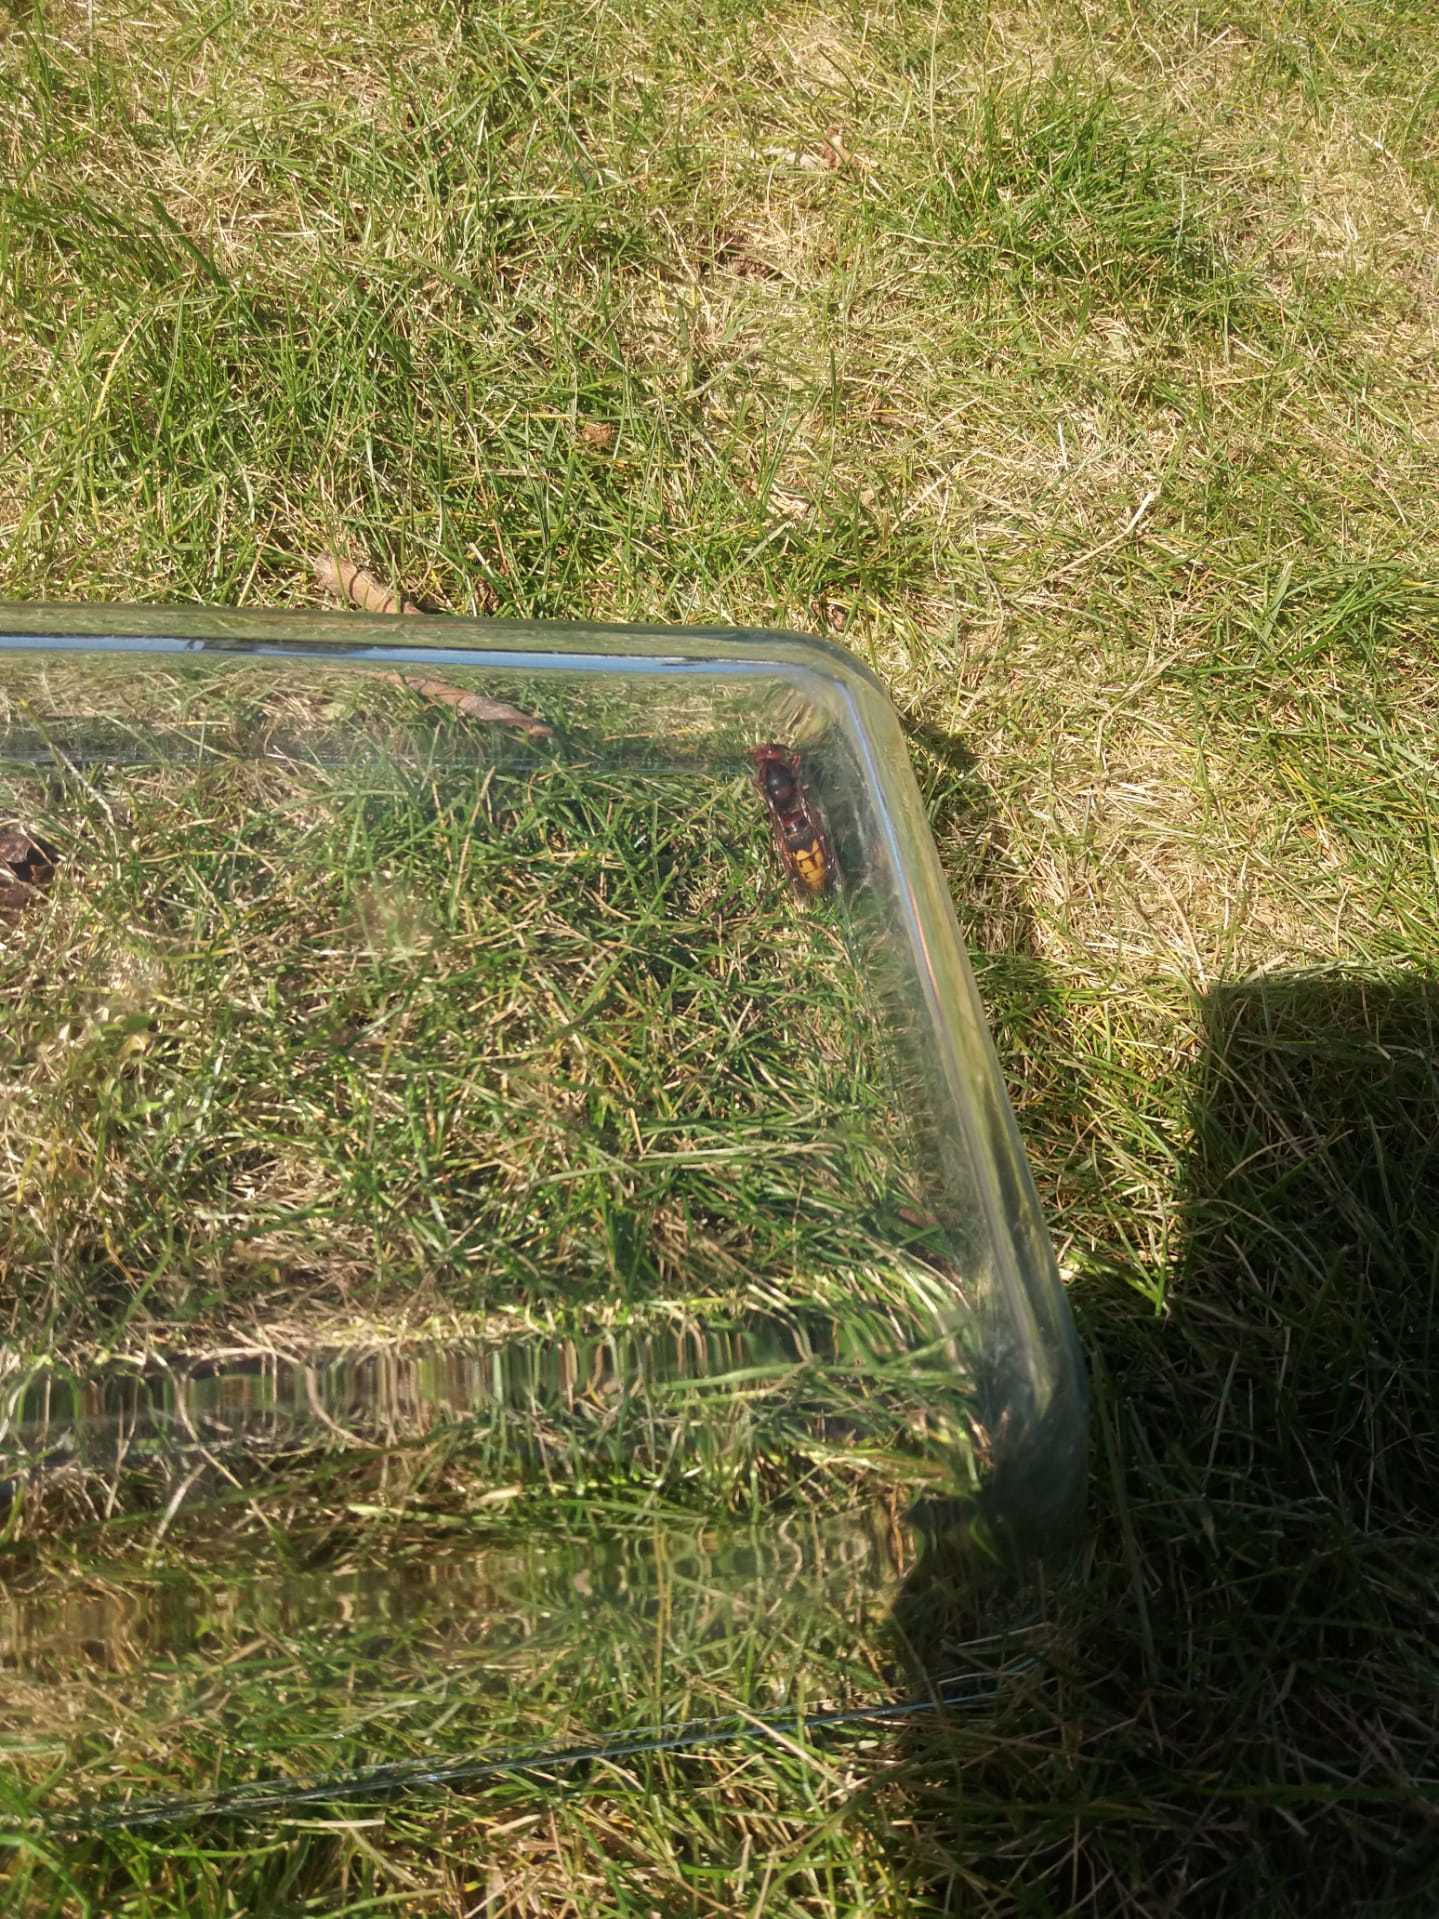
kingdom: Animalia
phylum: Arthropoda
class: Insecta
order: Hymenoptera
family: Vespidae
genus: Vespa
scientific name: Vespa crabro
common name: Hornet
